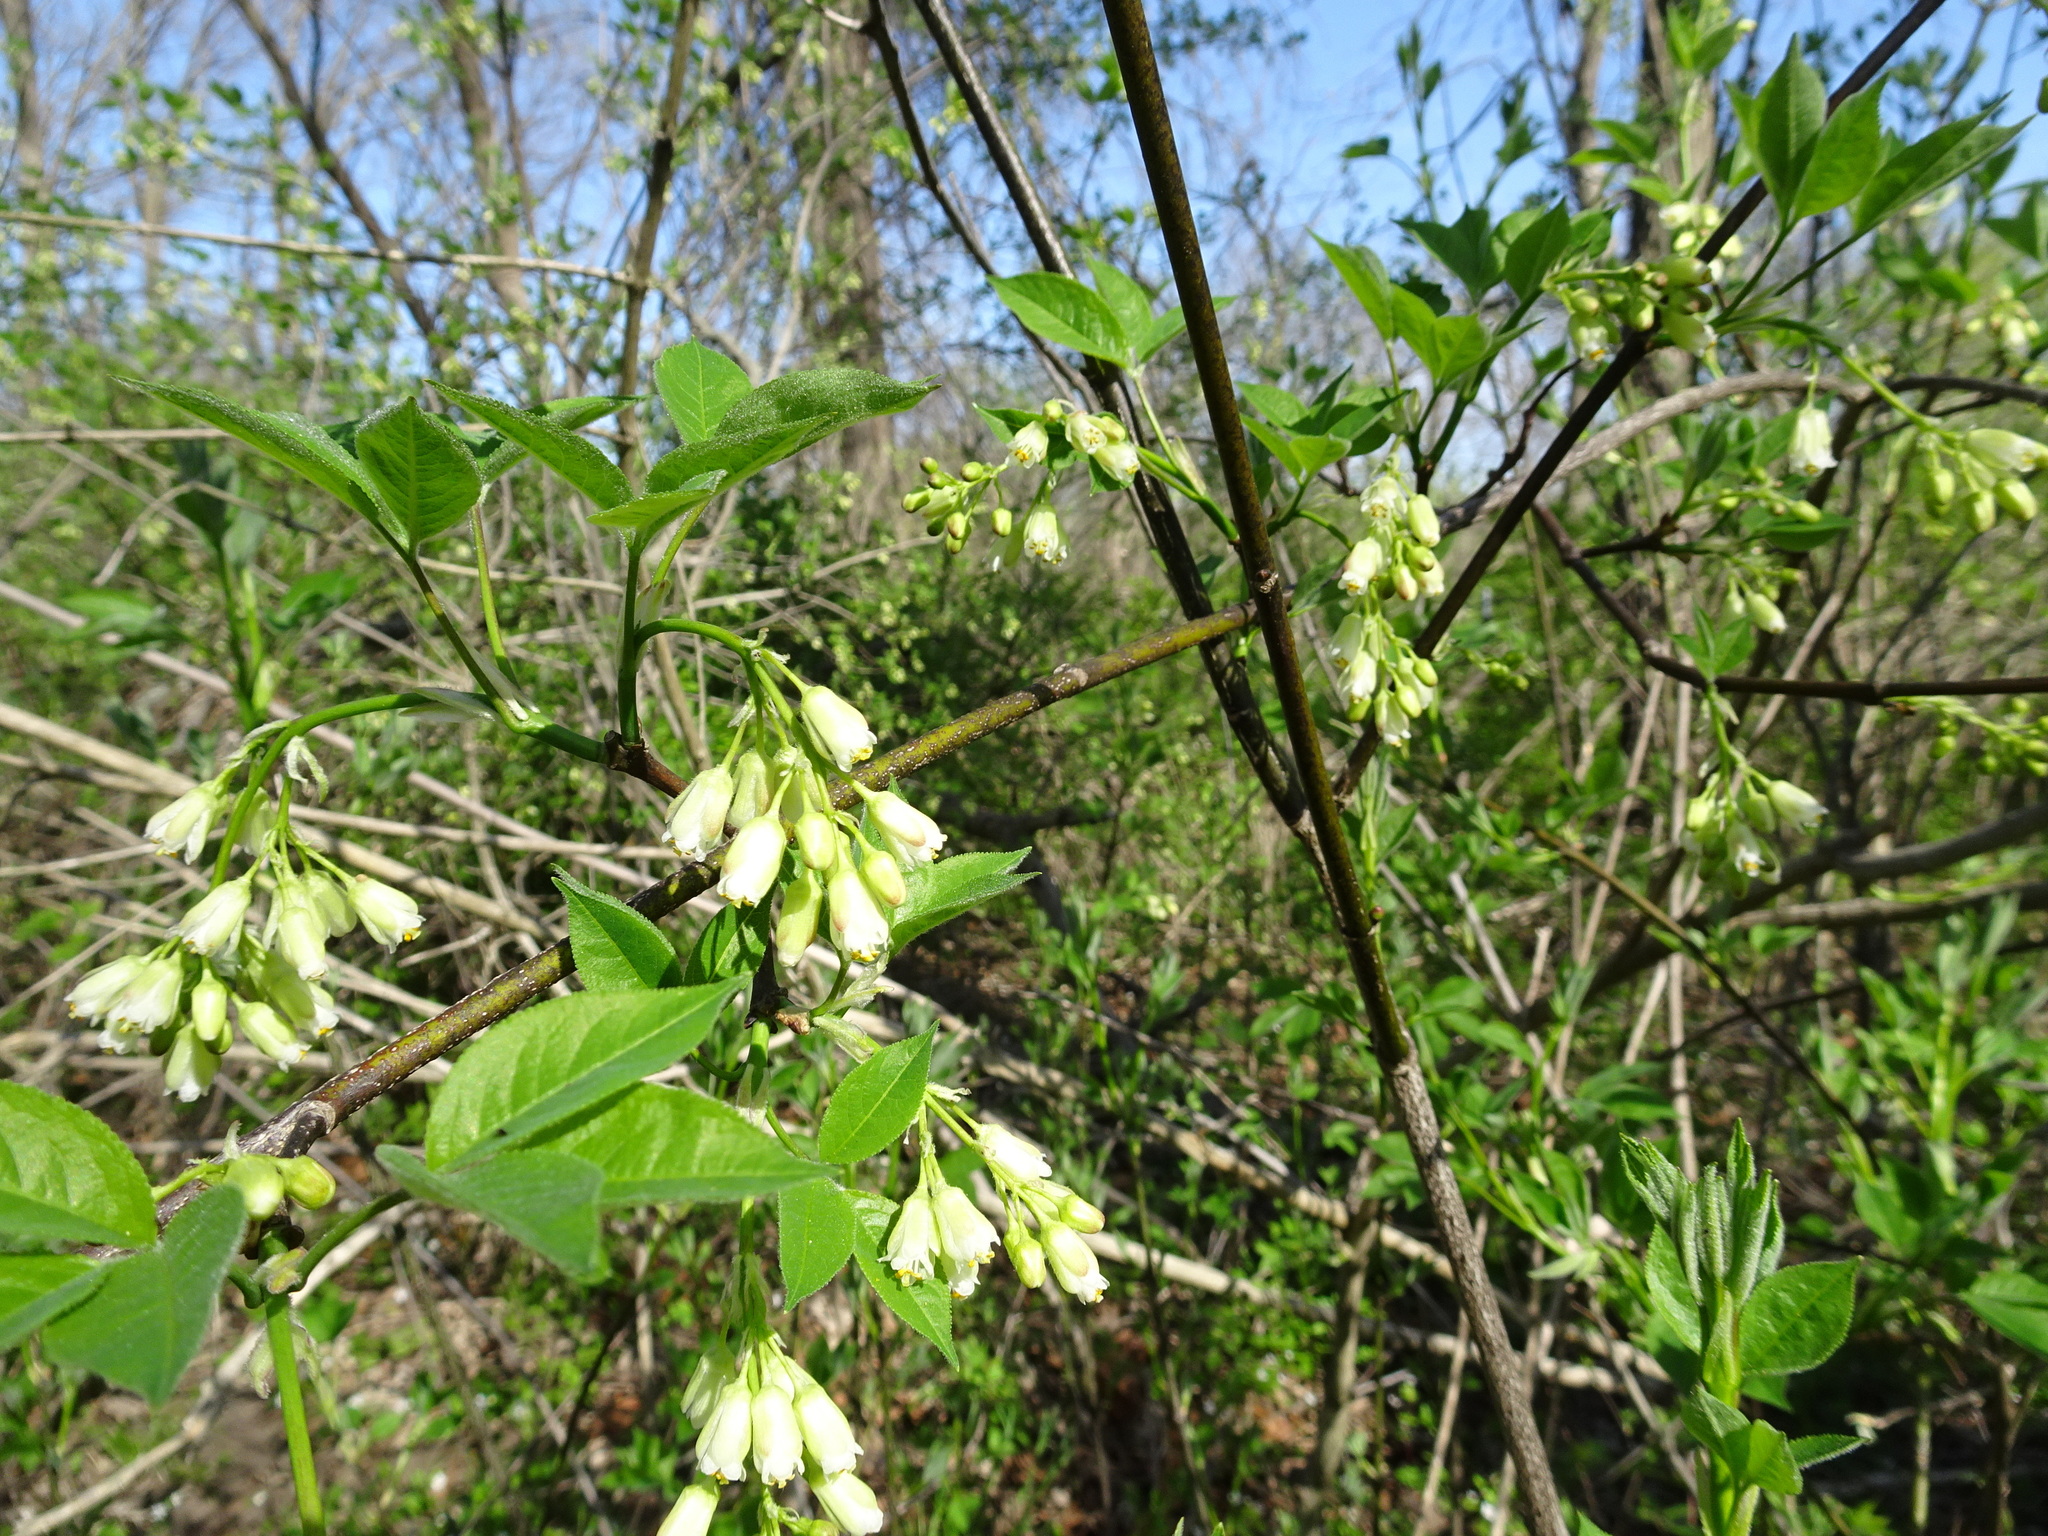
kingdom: Plantae
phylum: Tracheophyta
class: Magnoliopsida
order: Crossosomatales
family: Staphyleaceae
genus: Staphylea
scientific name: Staphylea trifolia
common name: American bladdernut
